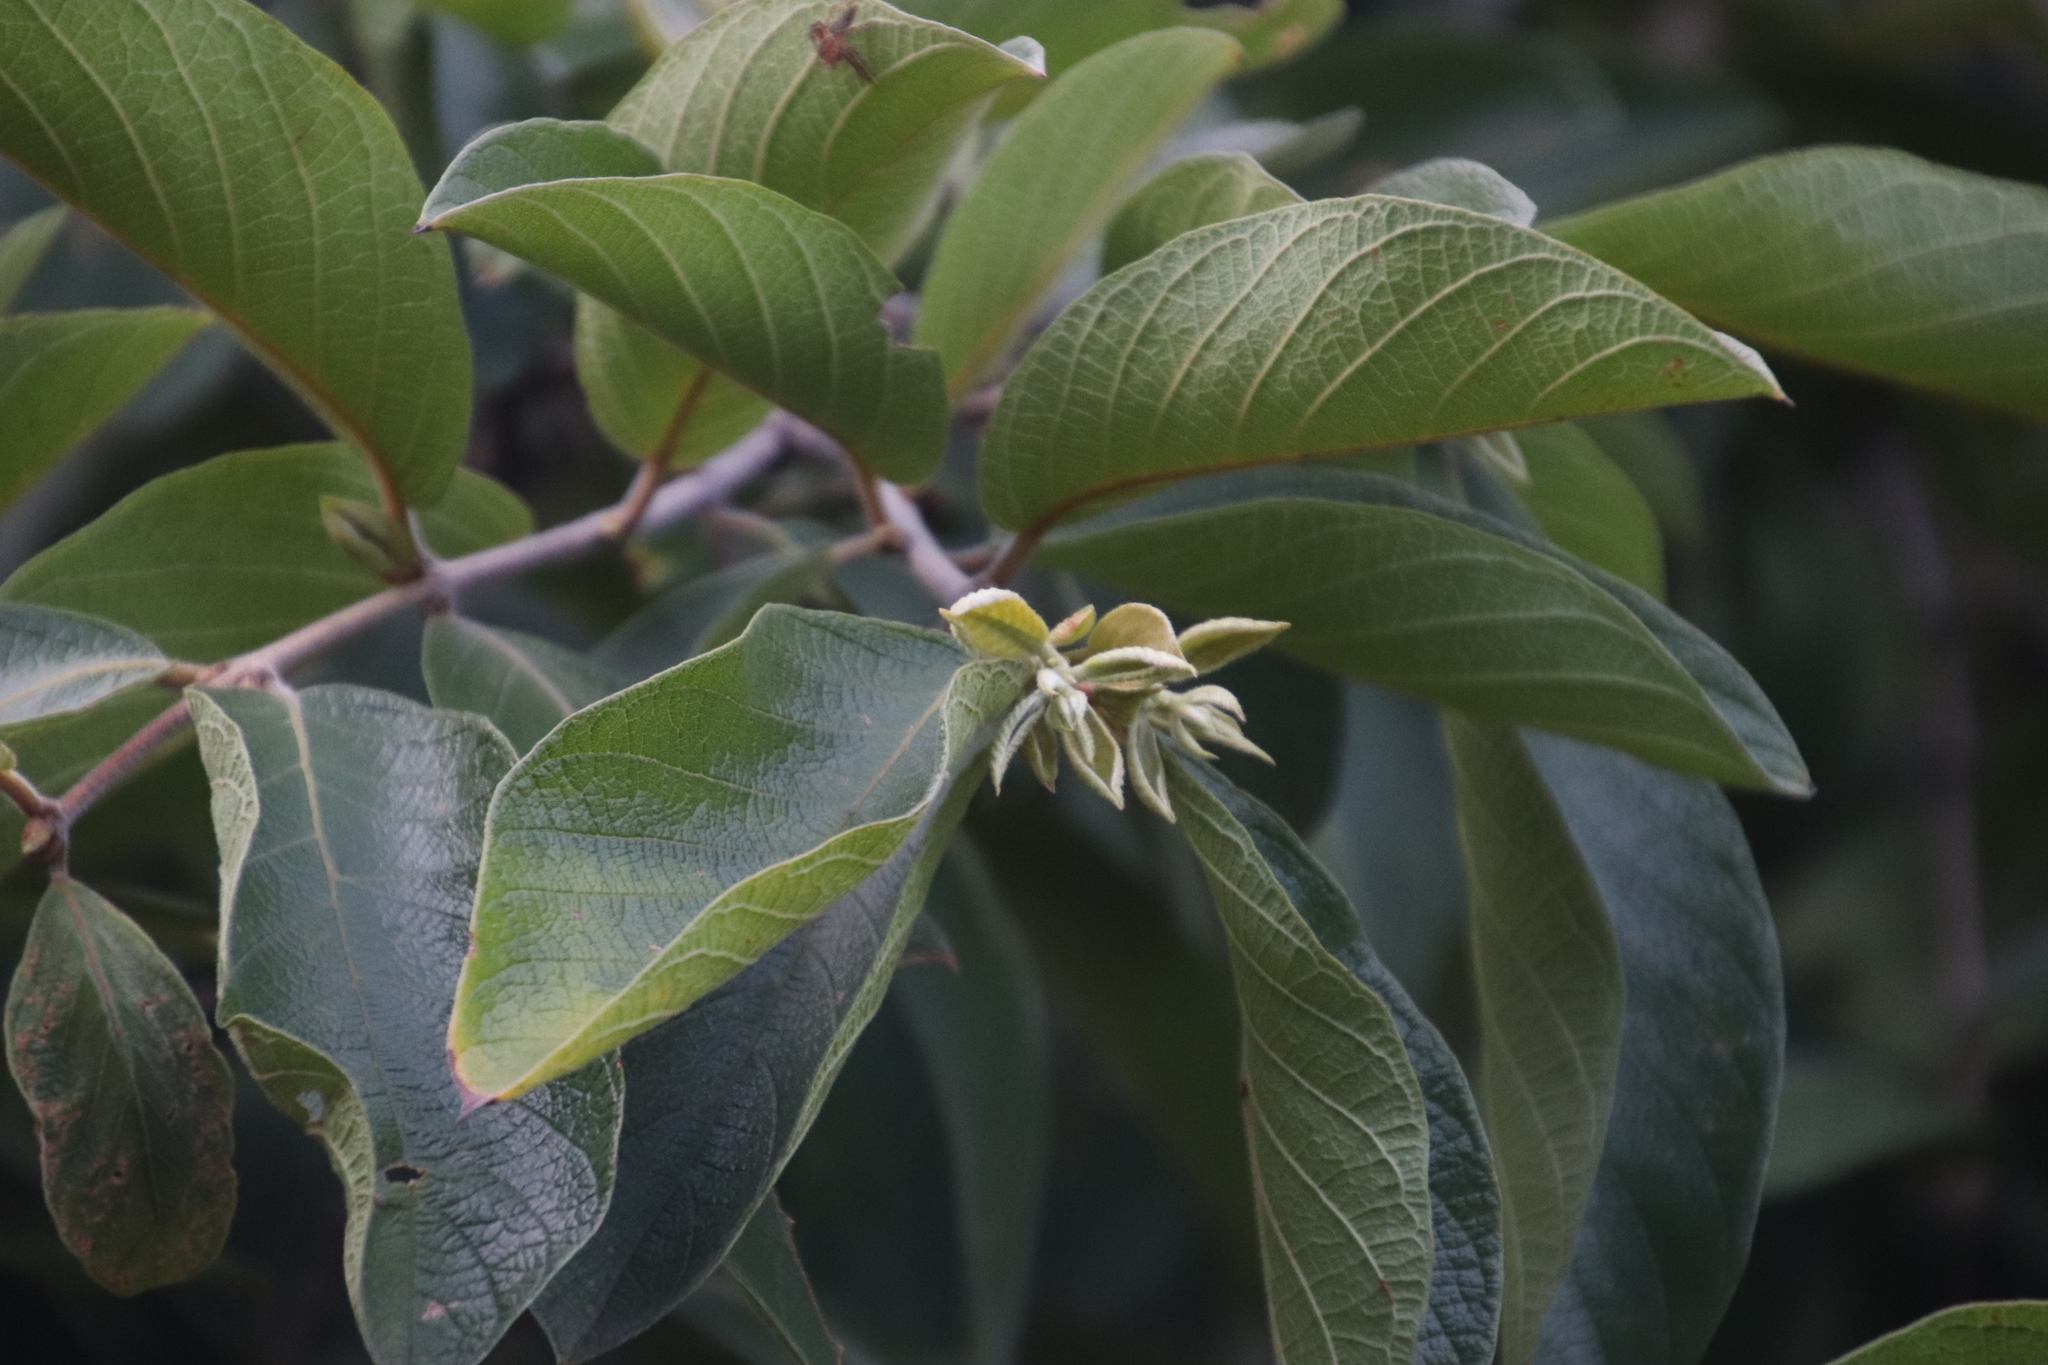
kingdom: Plantae
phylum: Tracheophyta
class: Magnoliopsida
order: Myrtales
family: Combretaceae
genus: Combretum
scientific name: Combretum molle
